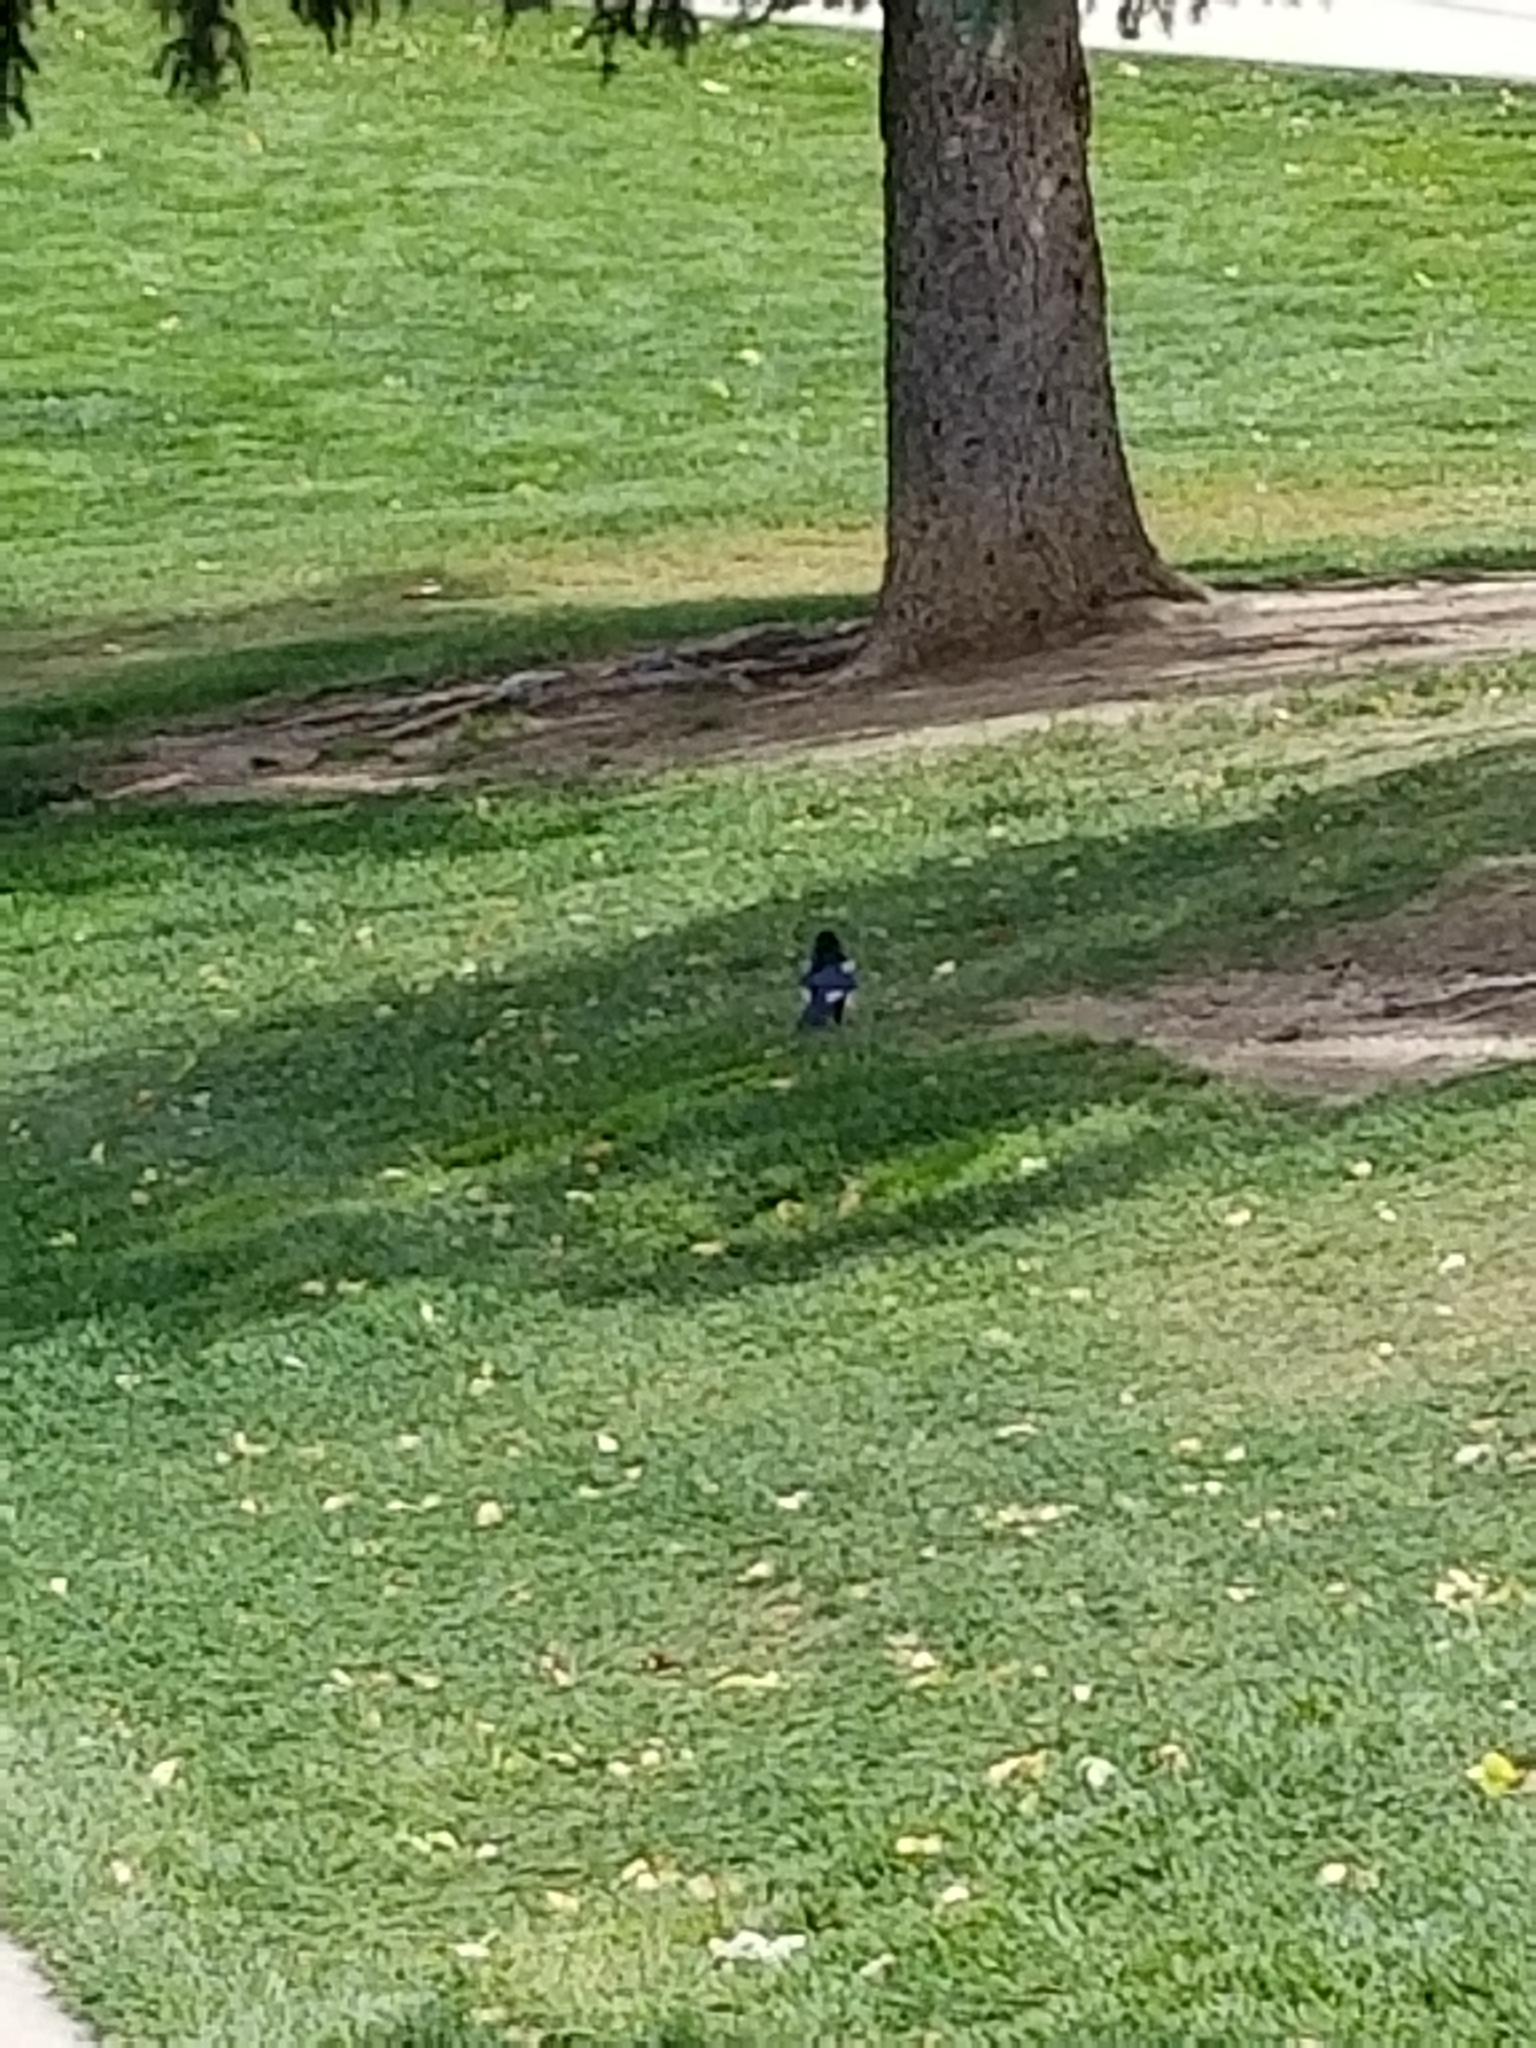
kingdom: Animalia
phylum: Chordata
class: Aves
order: Passeriformes
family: Corvidae
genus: Pica
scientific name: Pica hudsonia
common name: Black-billed magpie
